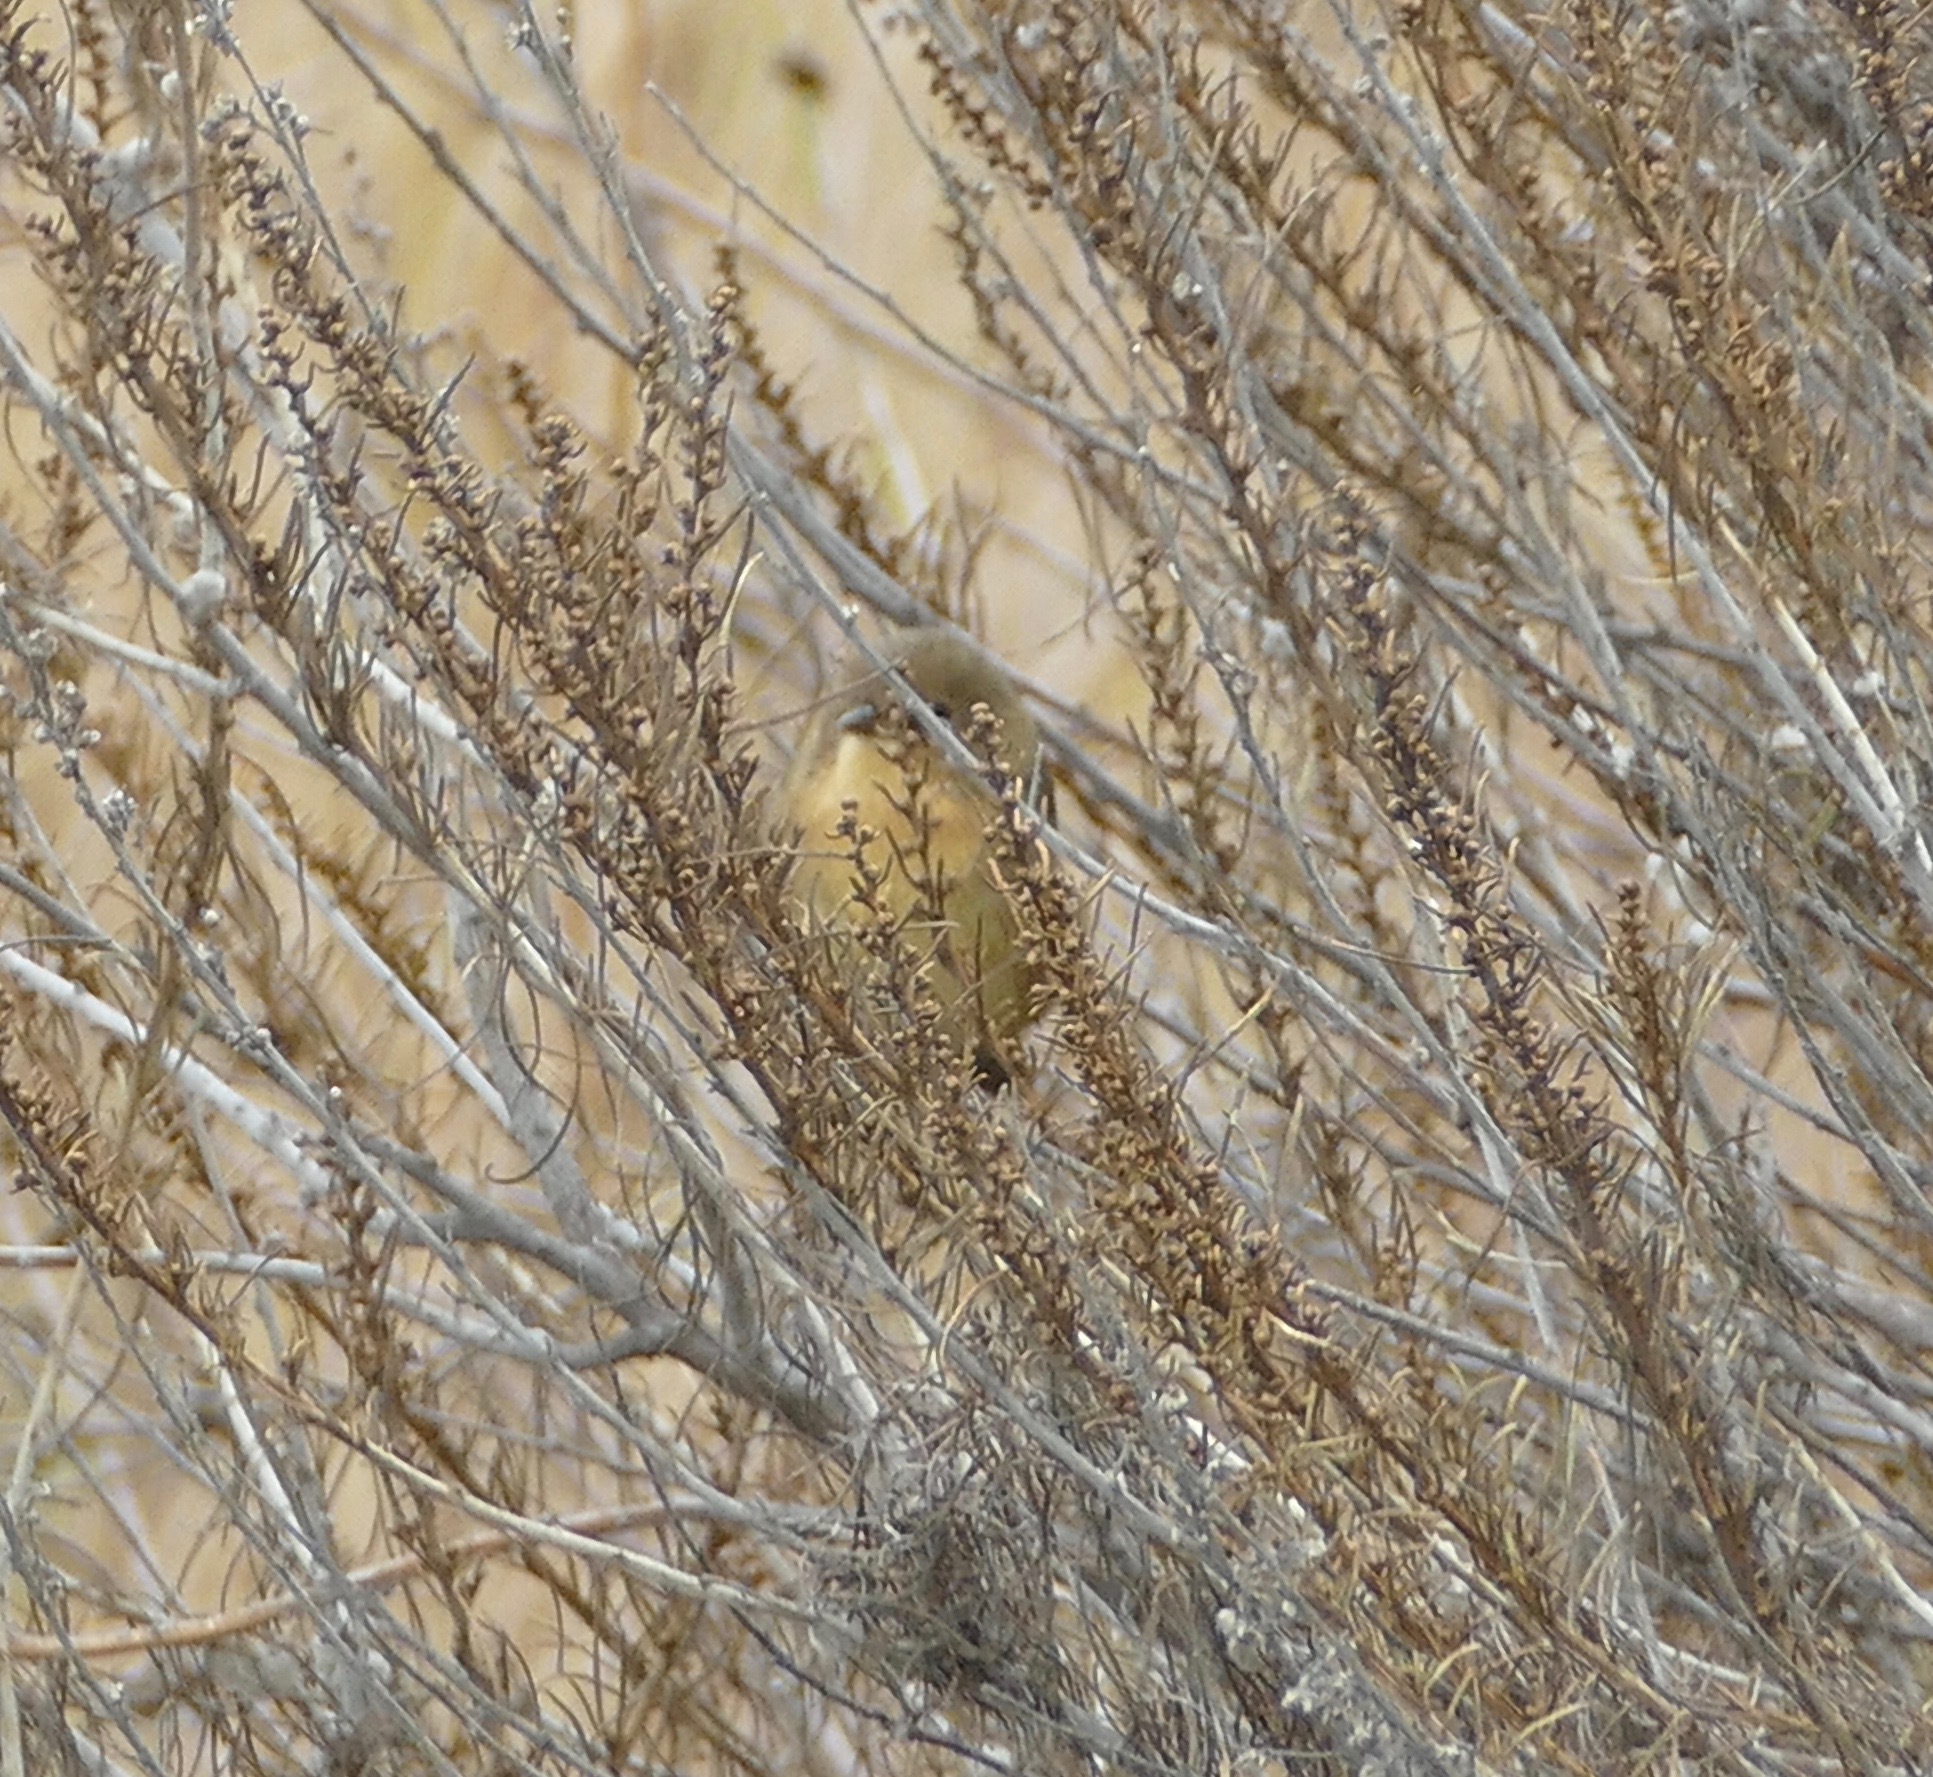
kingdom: Animalia
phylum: Chordata
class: Aves
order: Passeriformes
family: Parulidae
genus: Geothlypis
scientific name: Geothlypis trichas
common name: Common yellowthroat
